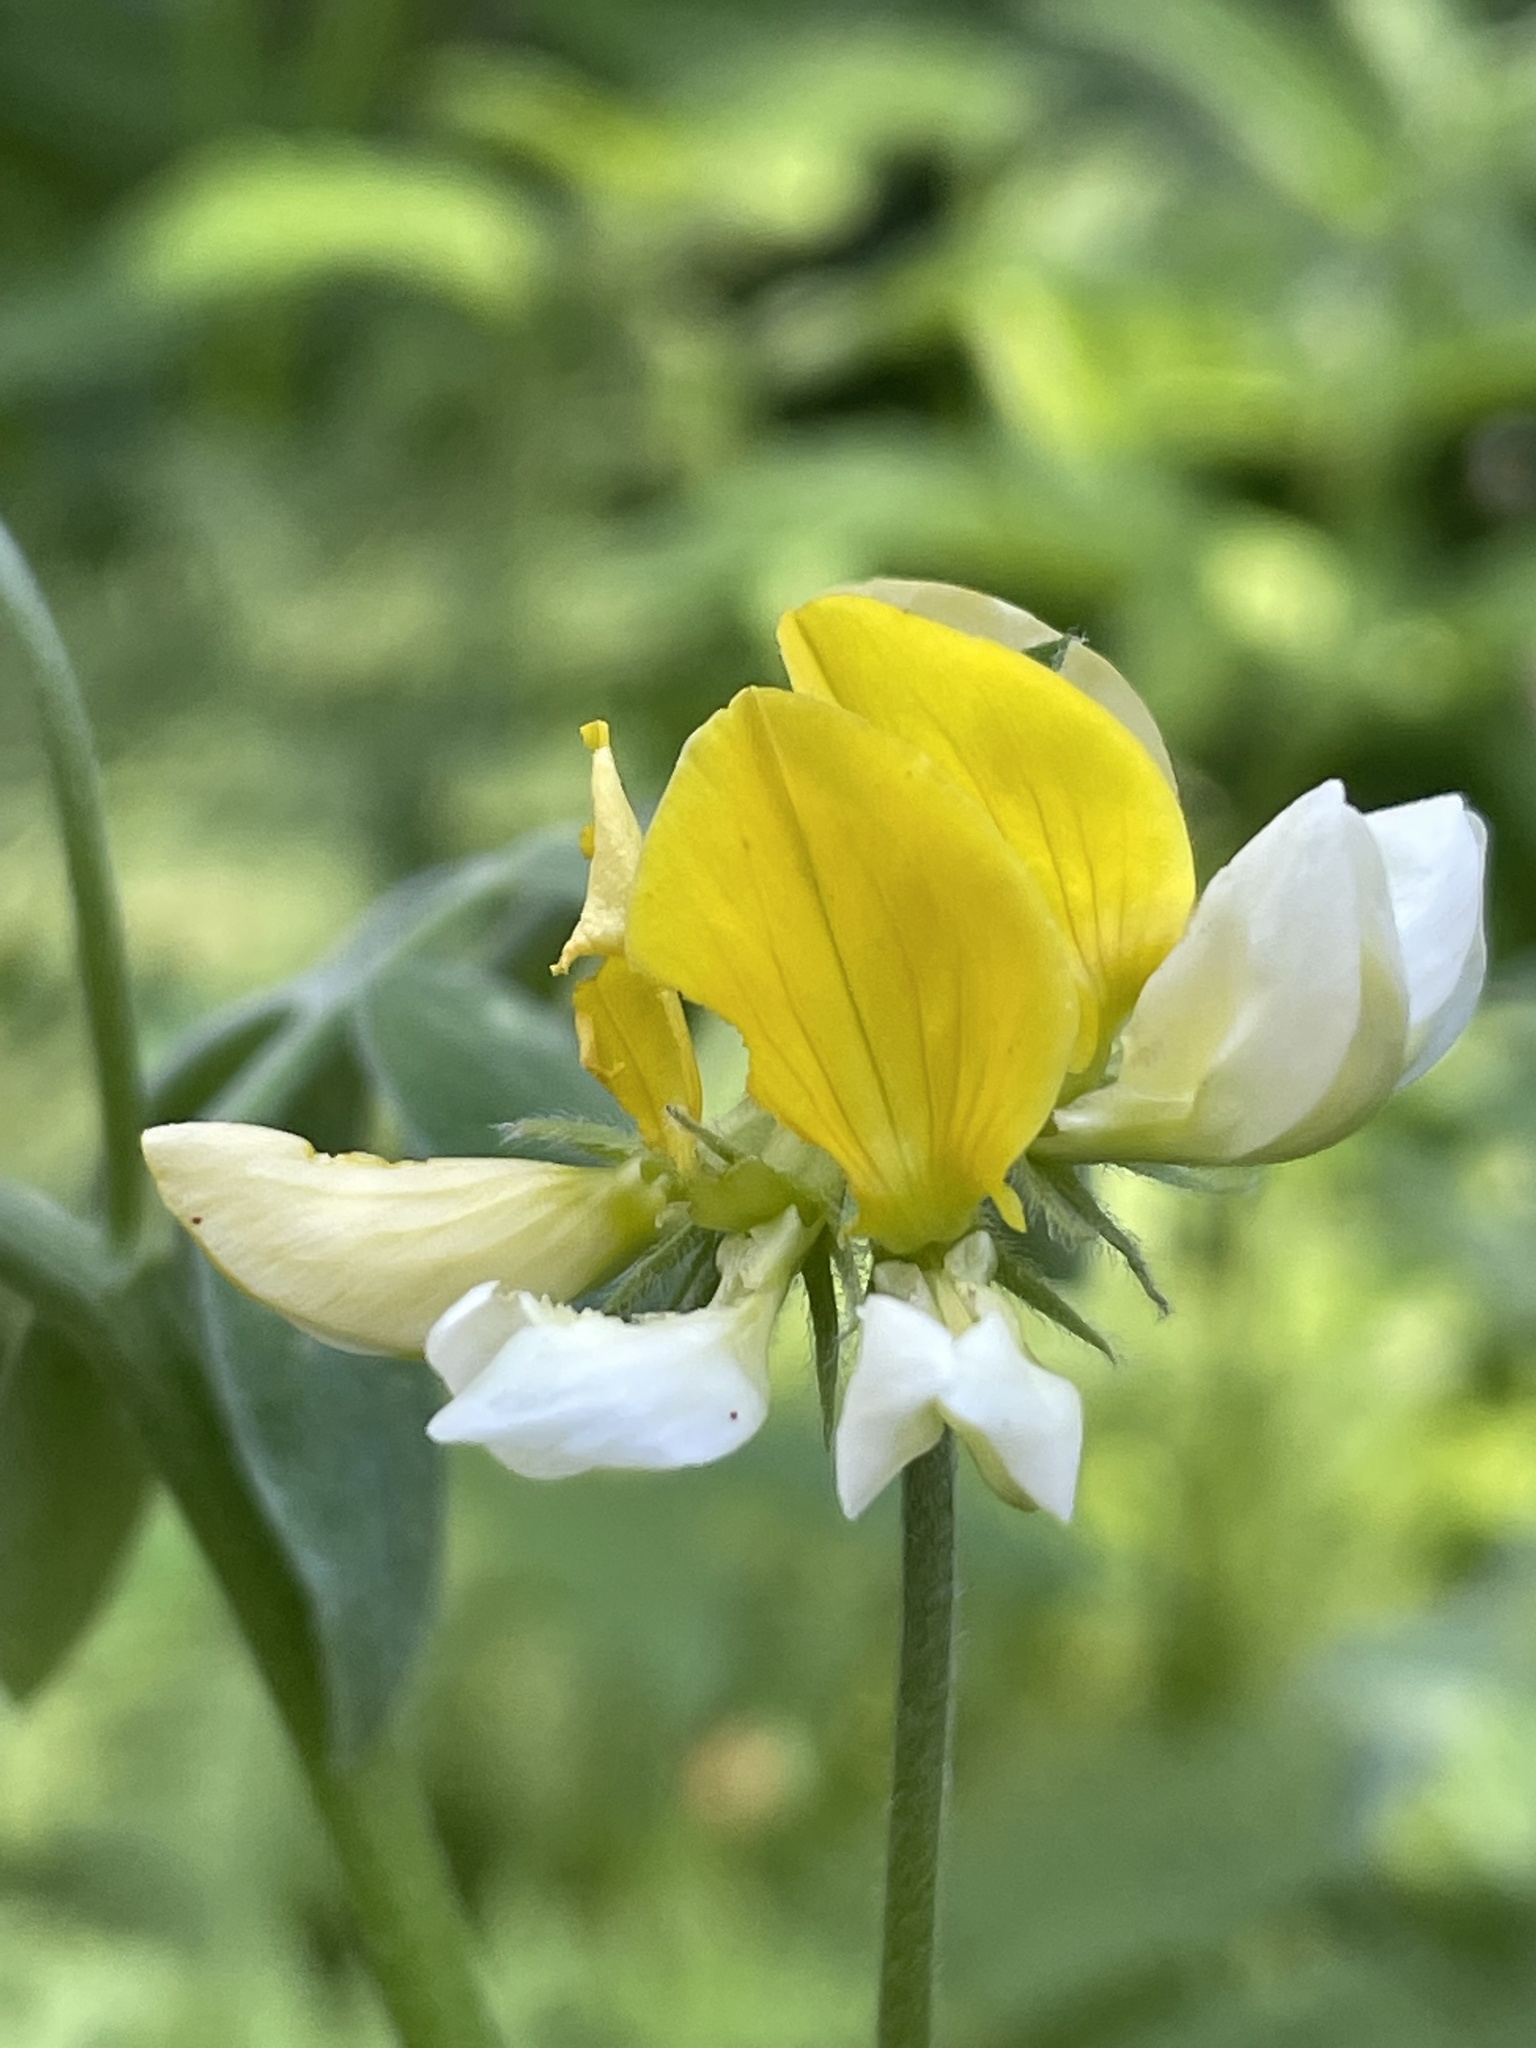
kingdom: Plantae
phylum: Tracheophyta
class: Magnoliopsida
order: Fabales
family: Fabaceae
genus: Hosackia
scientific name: Hosackia oblongifolia
